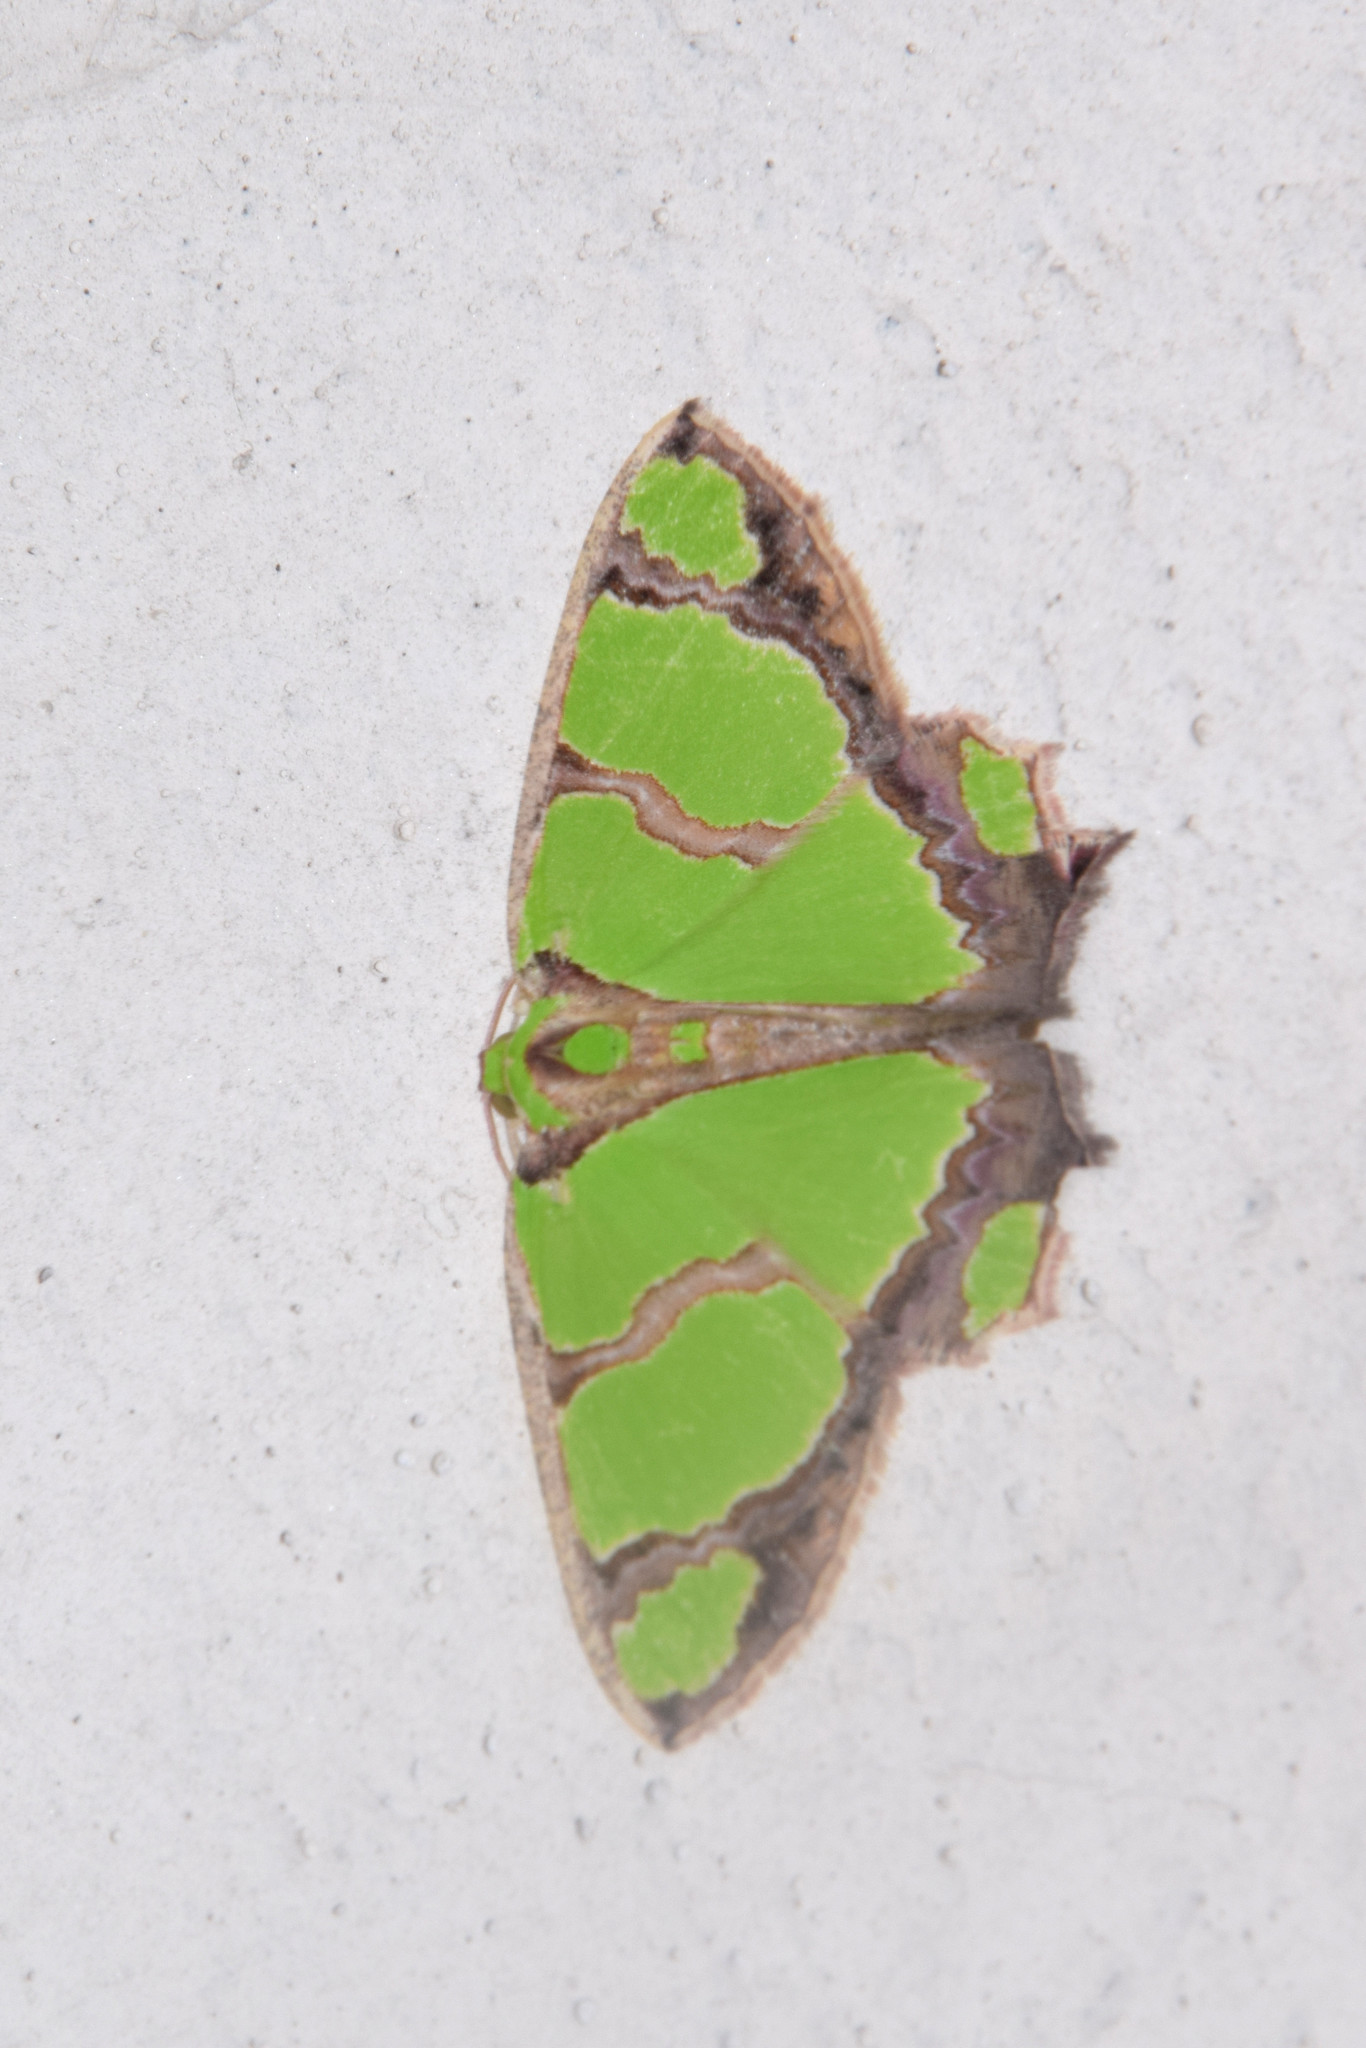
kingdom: Animalia
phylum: Arthropoda
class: Insecta
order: Lepidoptera
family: Geometridae
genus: Agathia
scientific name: Agathia hilarata
